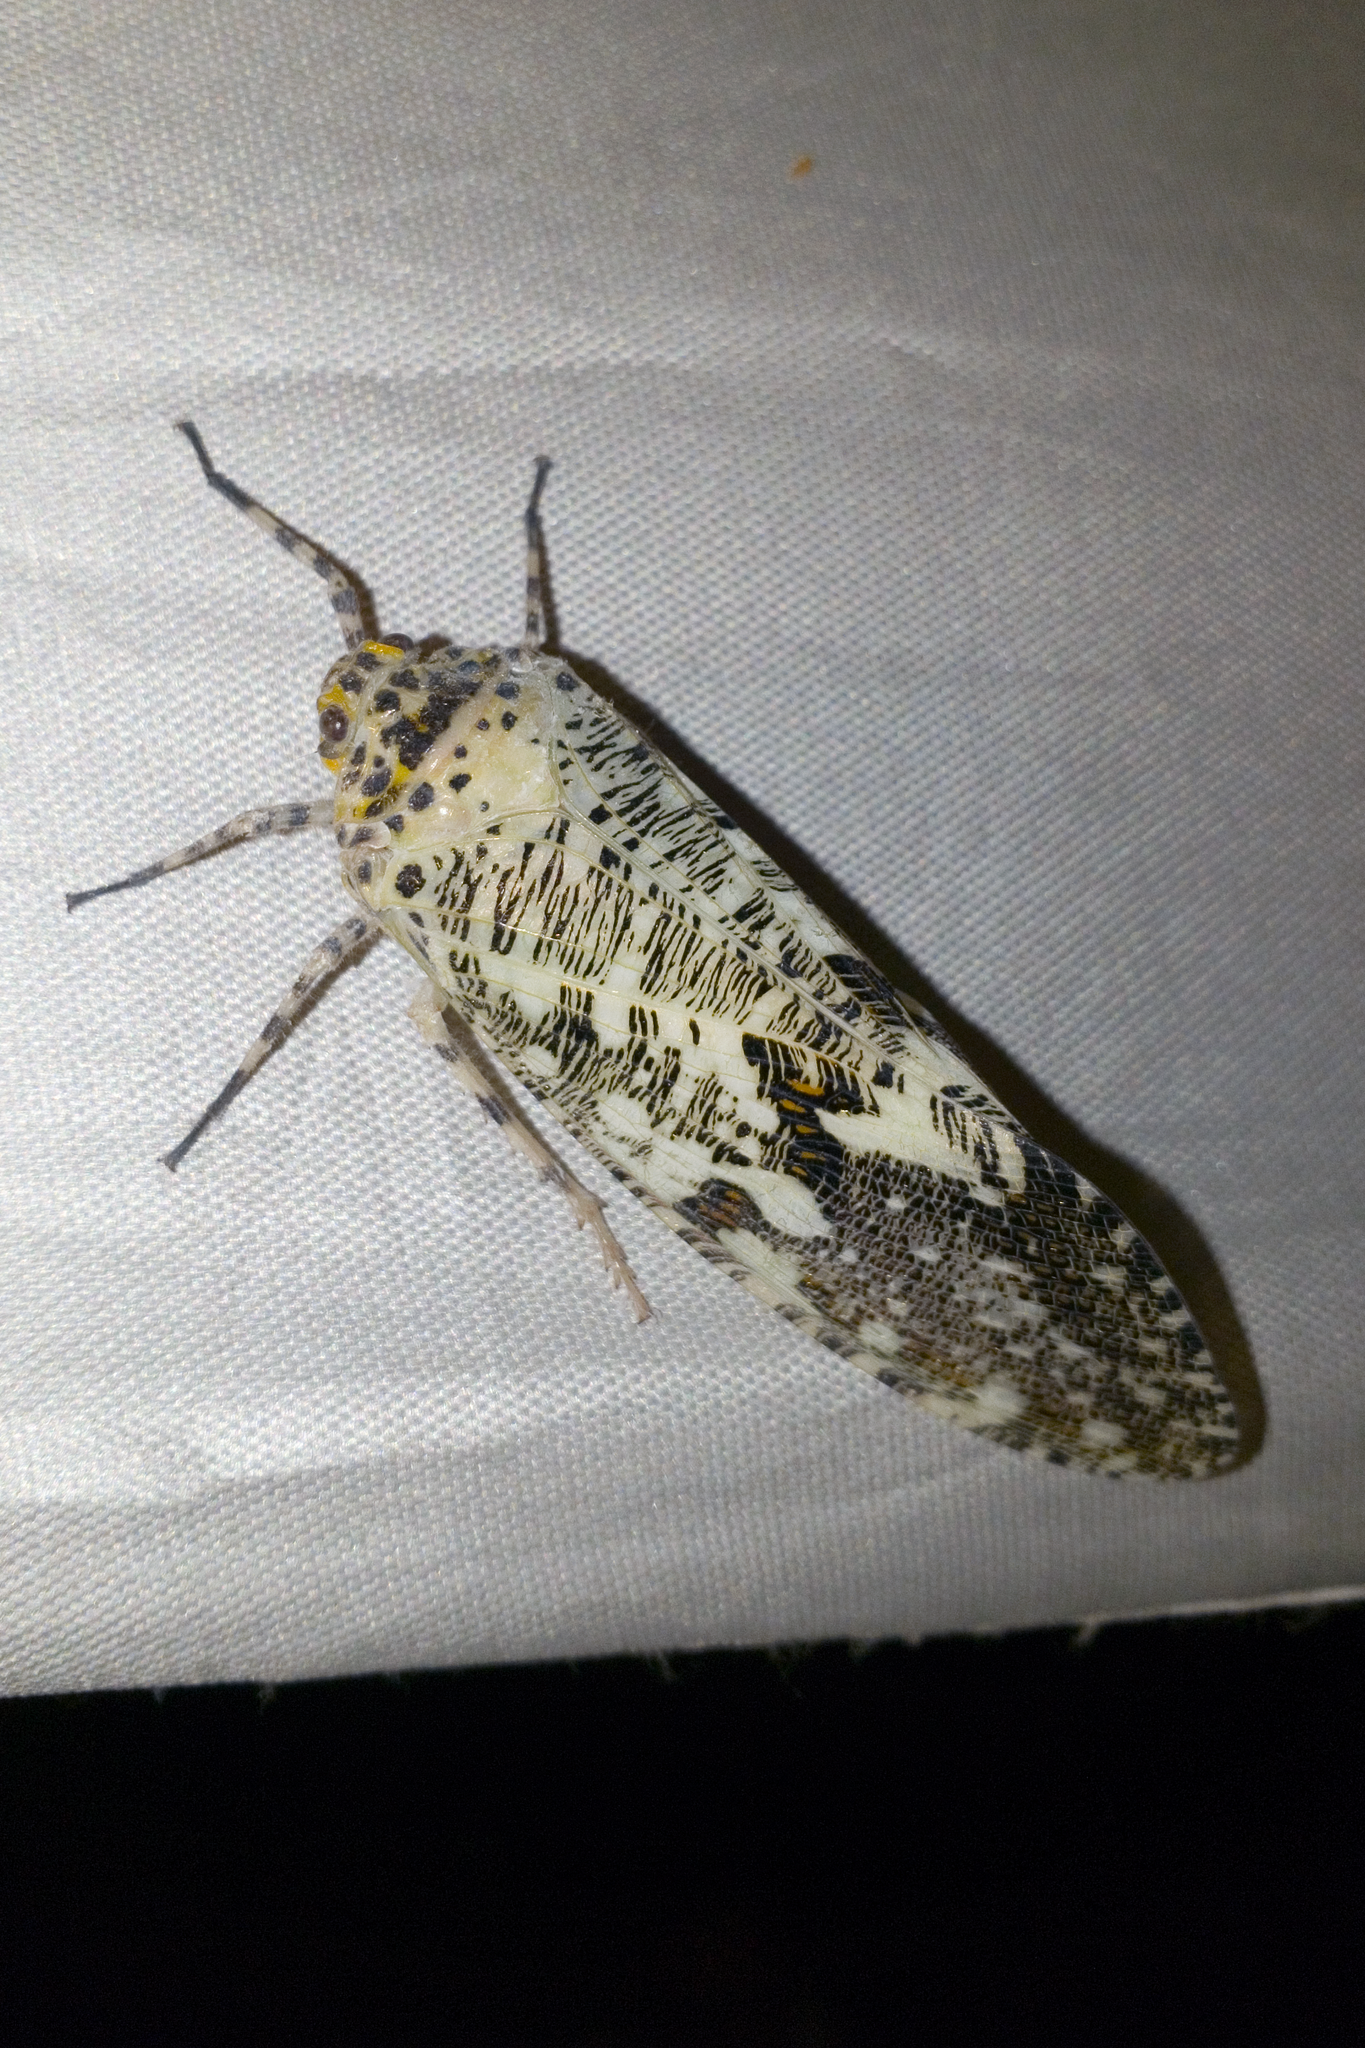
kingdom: Animalia
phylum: Arthropoda
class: Insecta
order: Hemiptera
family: Fulgoridae
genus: Phenax
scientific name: Phenax variegata
